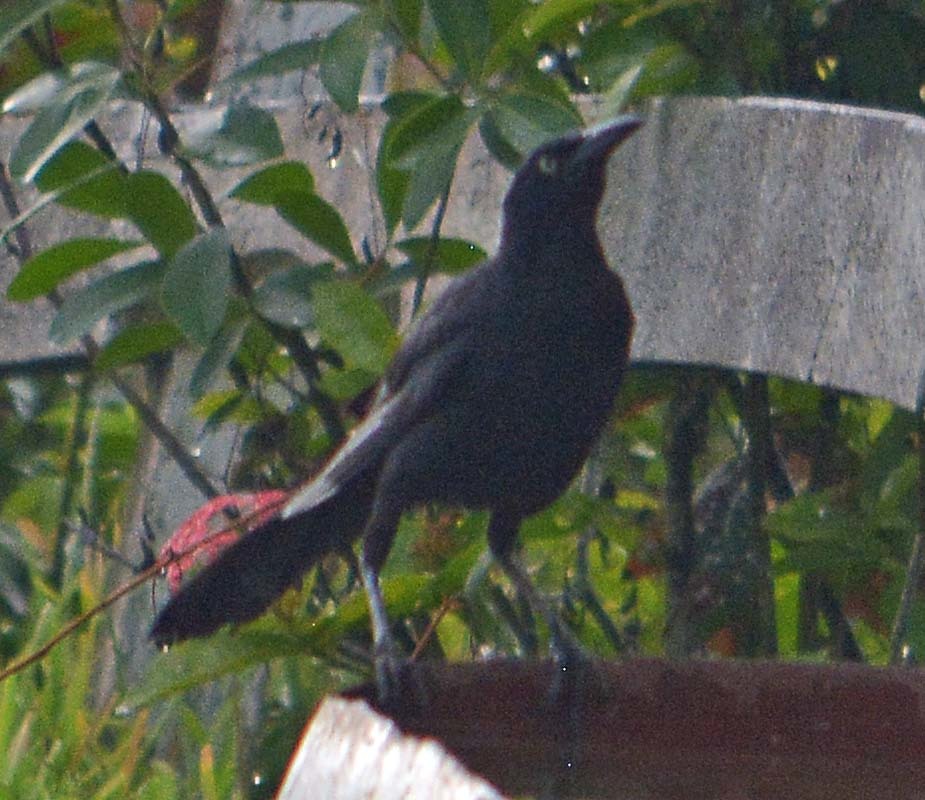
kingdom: Animalia
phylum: Chordata
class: Aves
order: Passeriformes
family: Icteridae
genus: Quiscalus
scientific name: Quiscalus mexicanus
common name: Great-tailed grackle
